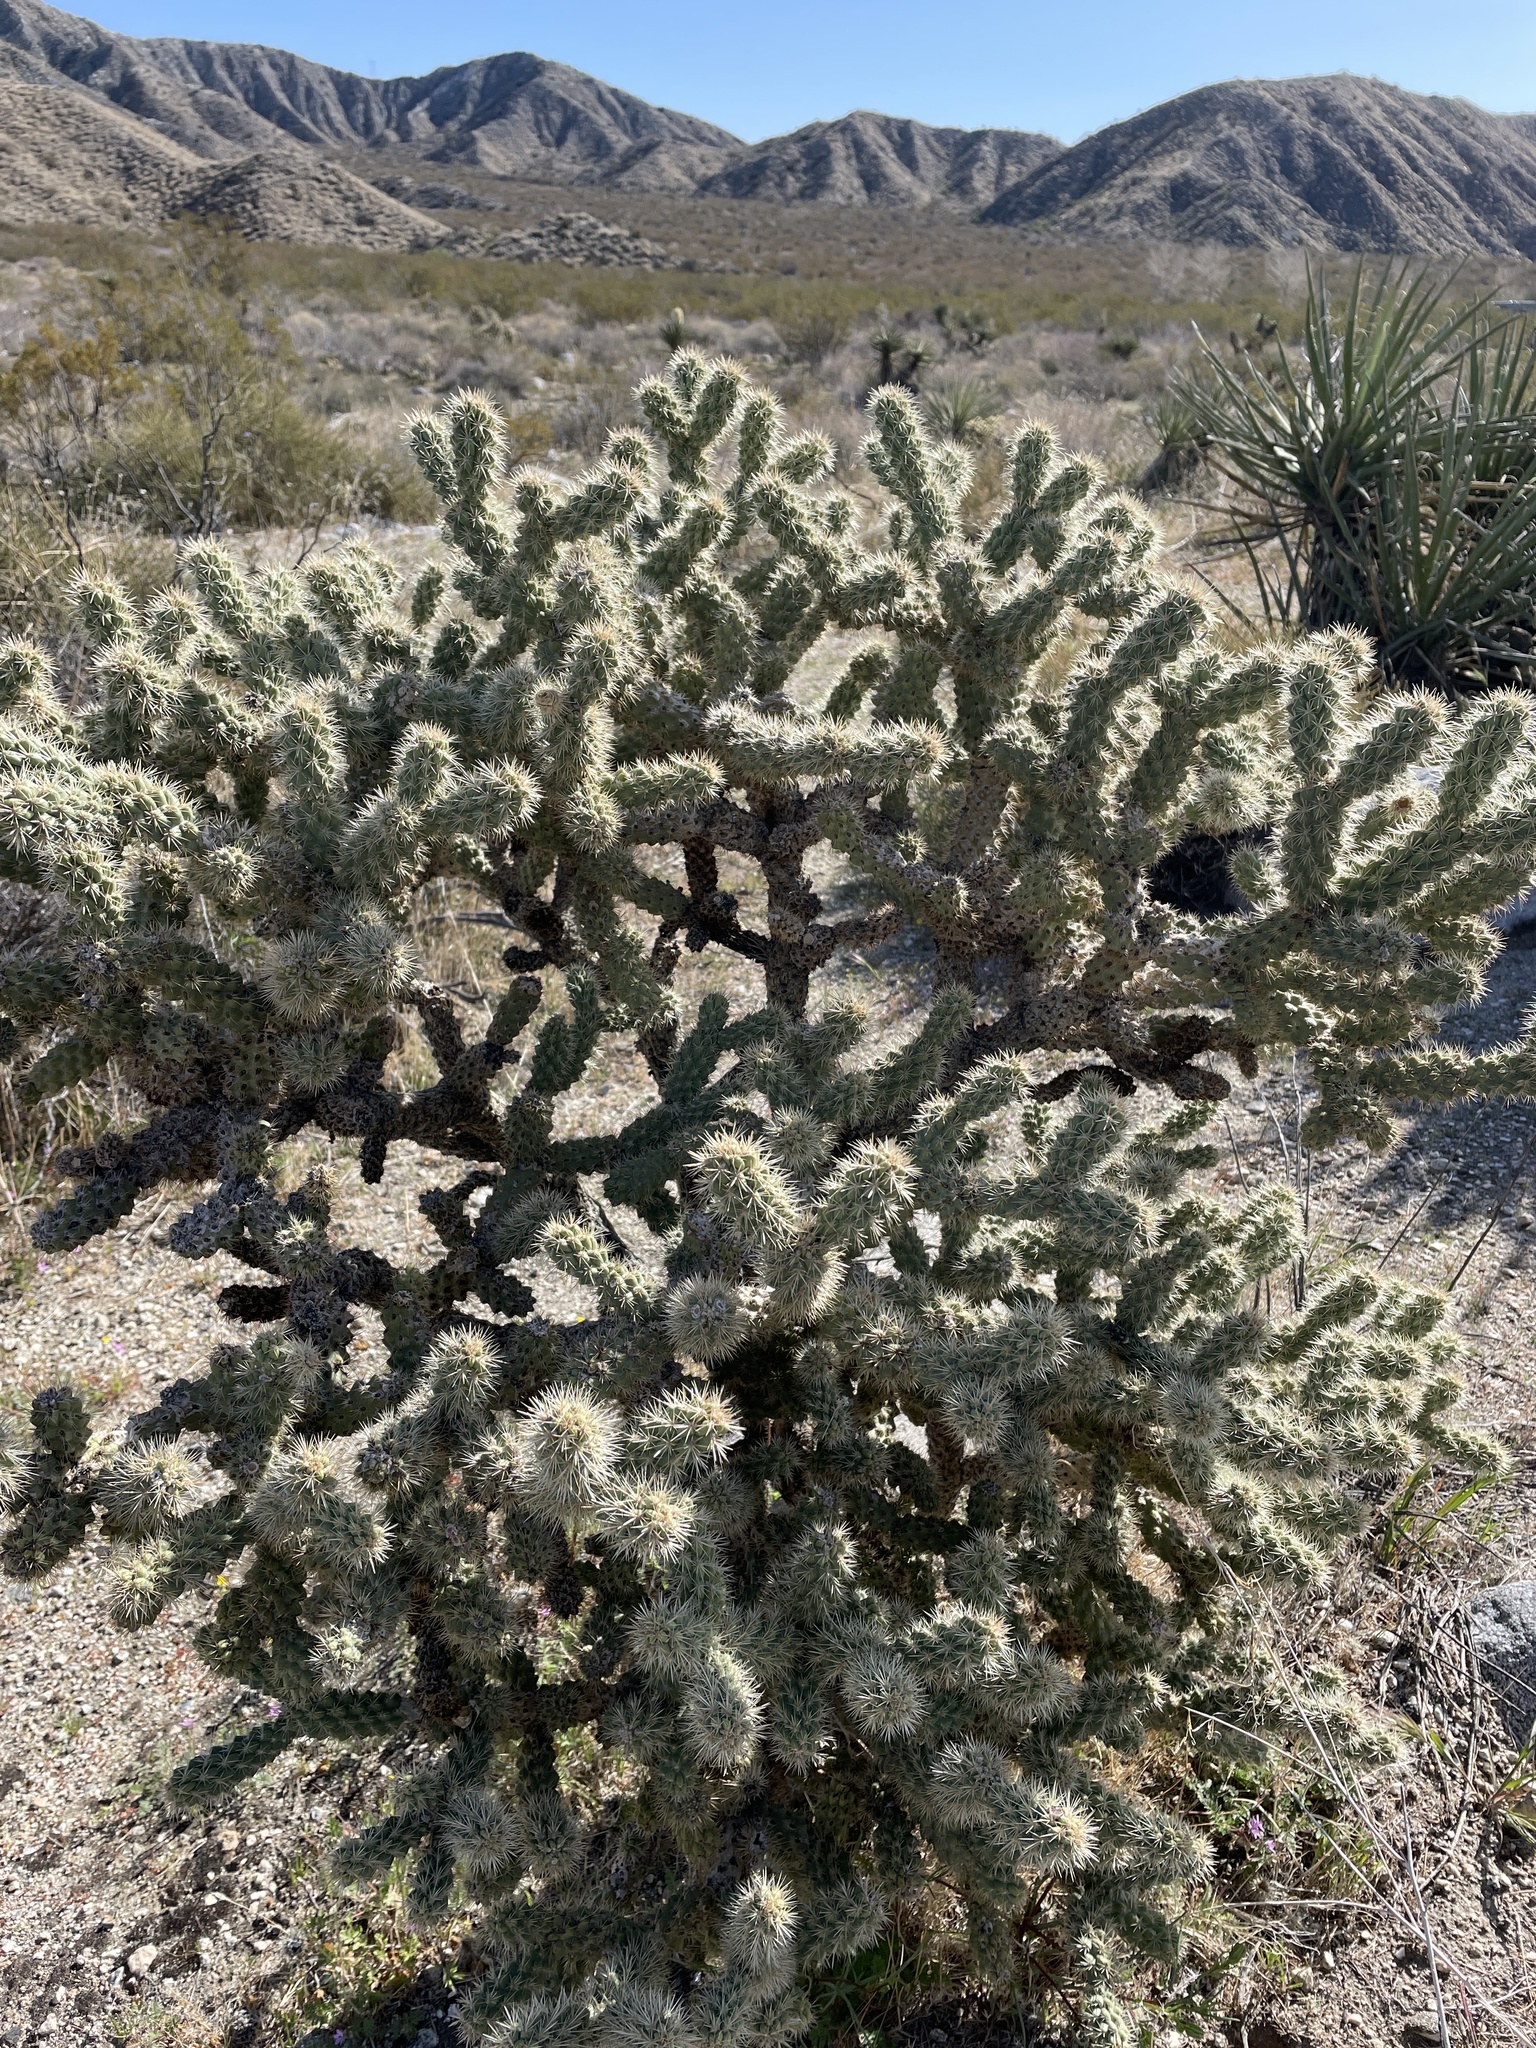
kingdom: Plantae
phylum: Tracheophyta
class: Magnoliopsida
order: Caryophyllales
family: Cactaceae
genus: Cylindropuntia
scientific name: Cylindropuntia echinocarpa
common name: Ground cholla
